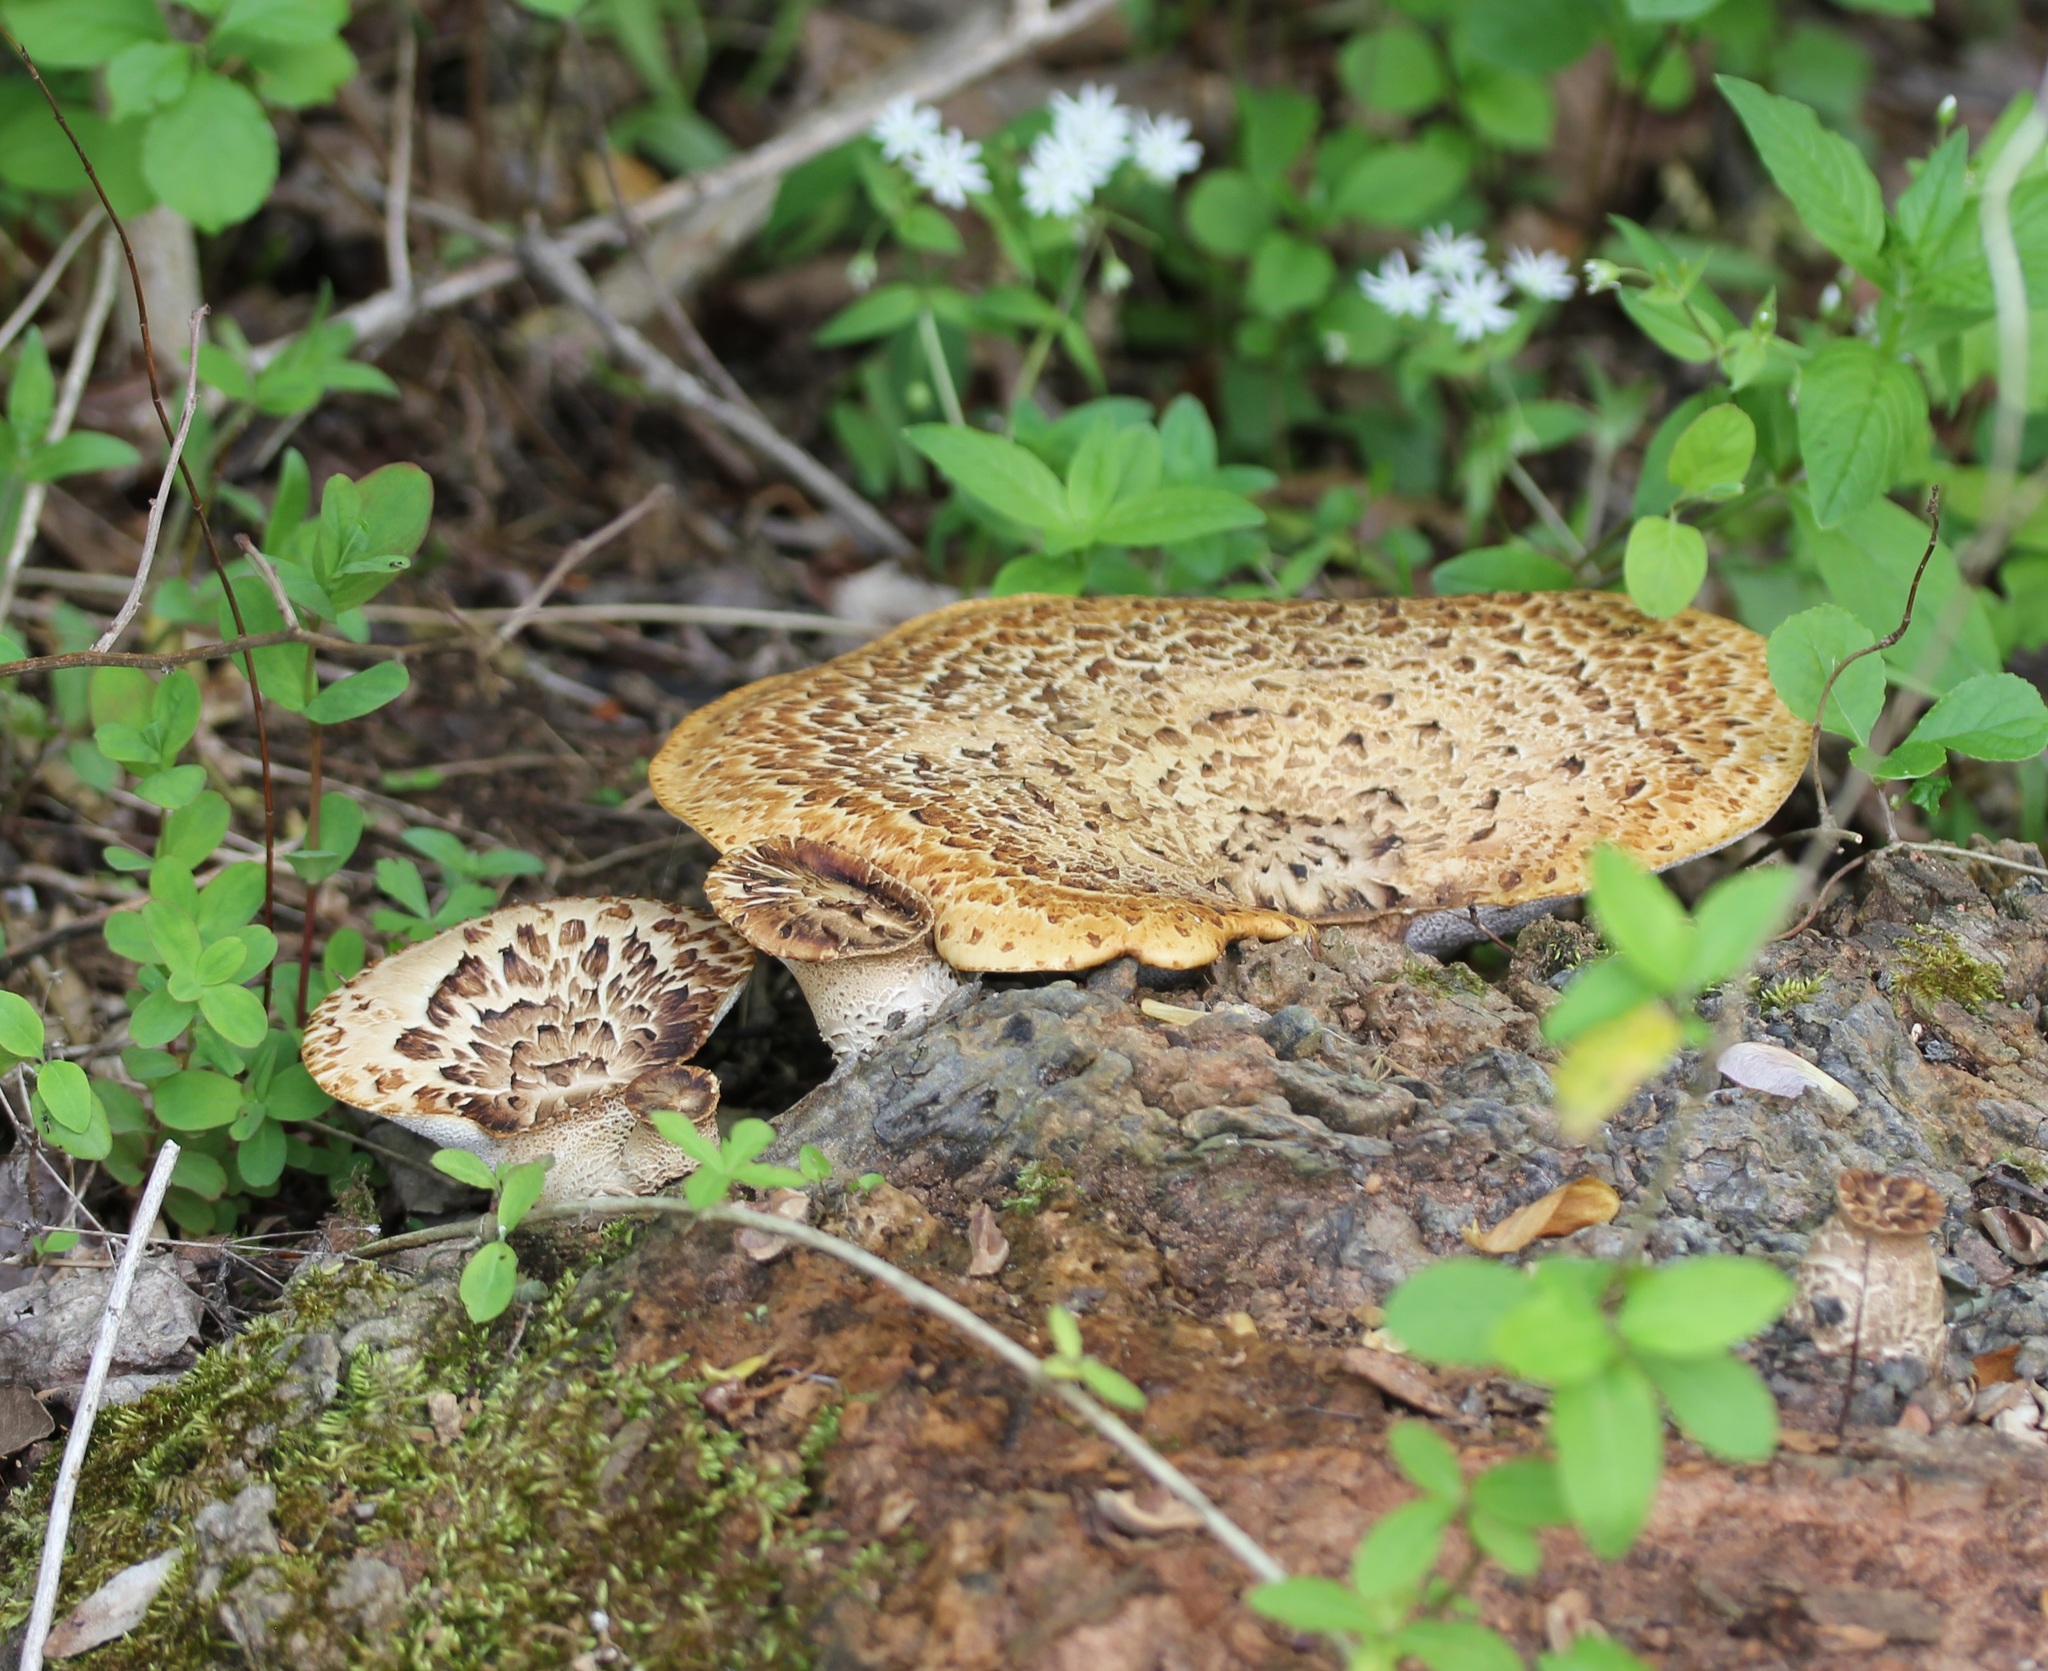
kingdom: Fungi
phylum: Basidiomycota
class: Agaricomycetes
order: Polyporales
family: Polyporaceae
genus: Cerioporus
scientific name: Cerioporus squamosus
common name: Dryad's saddle
